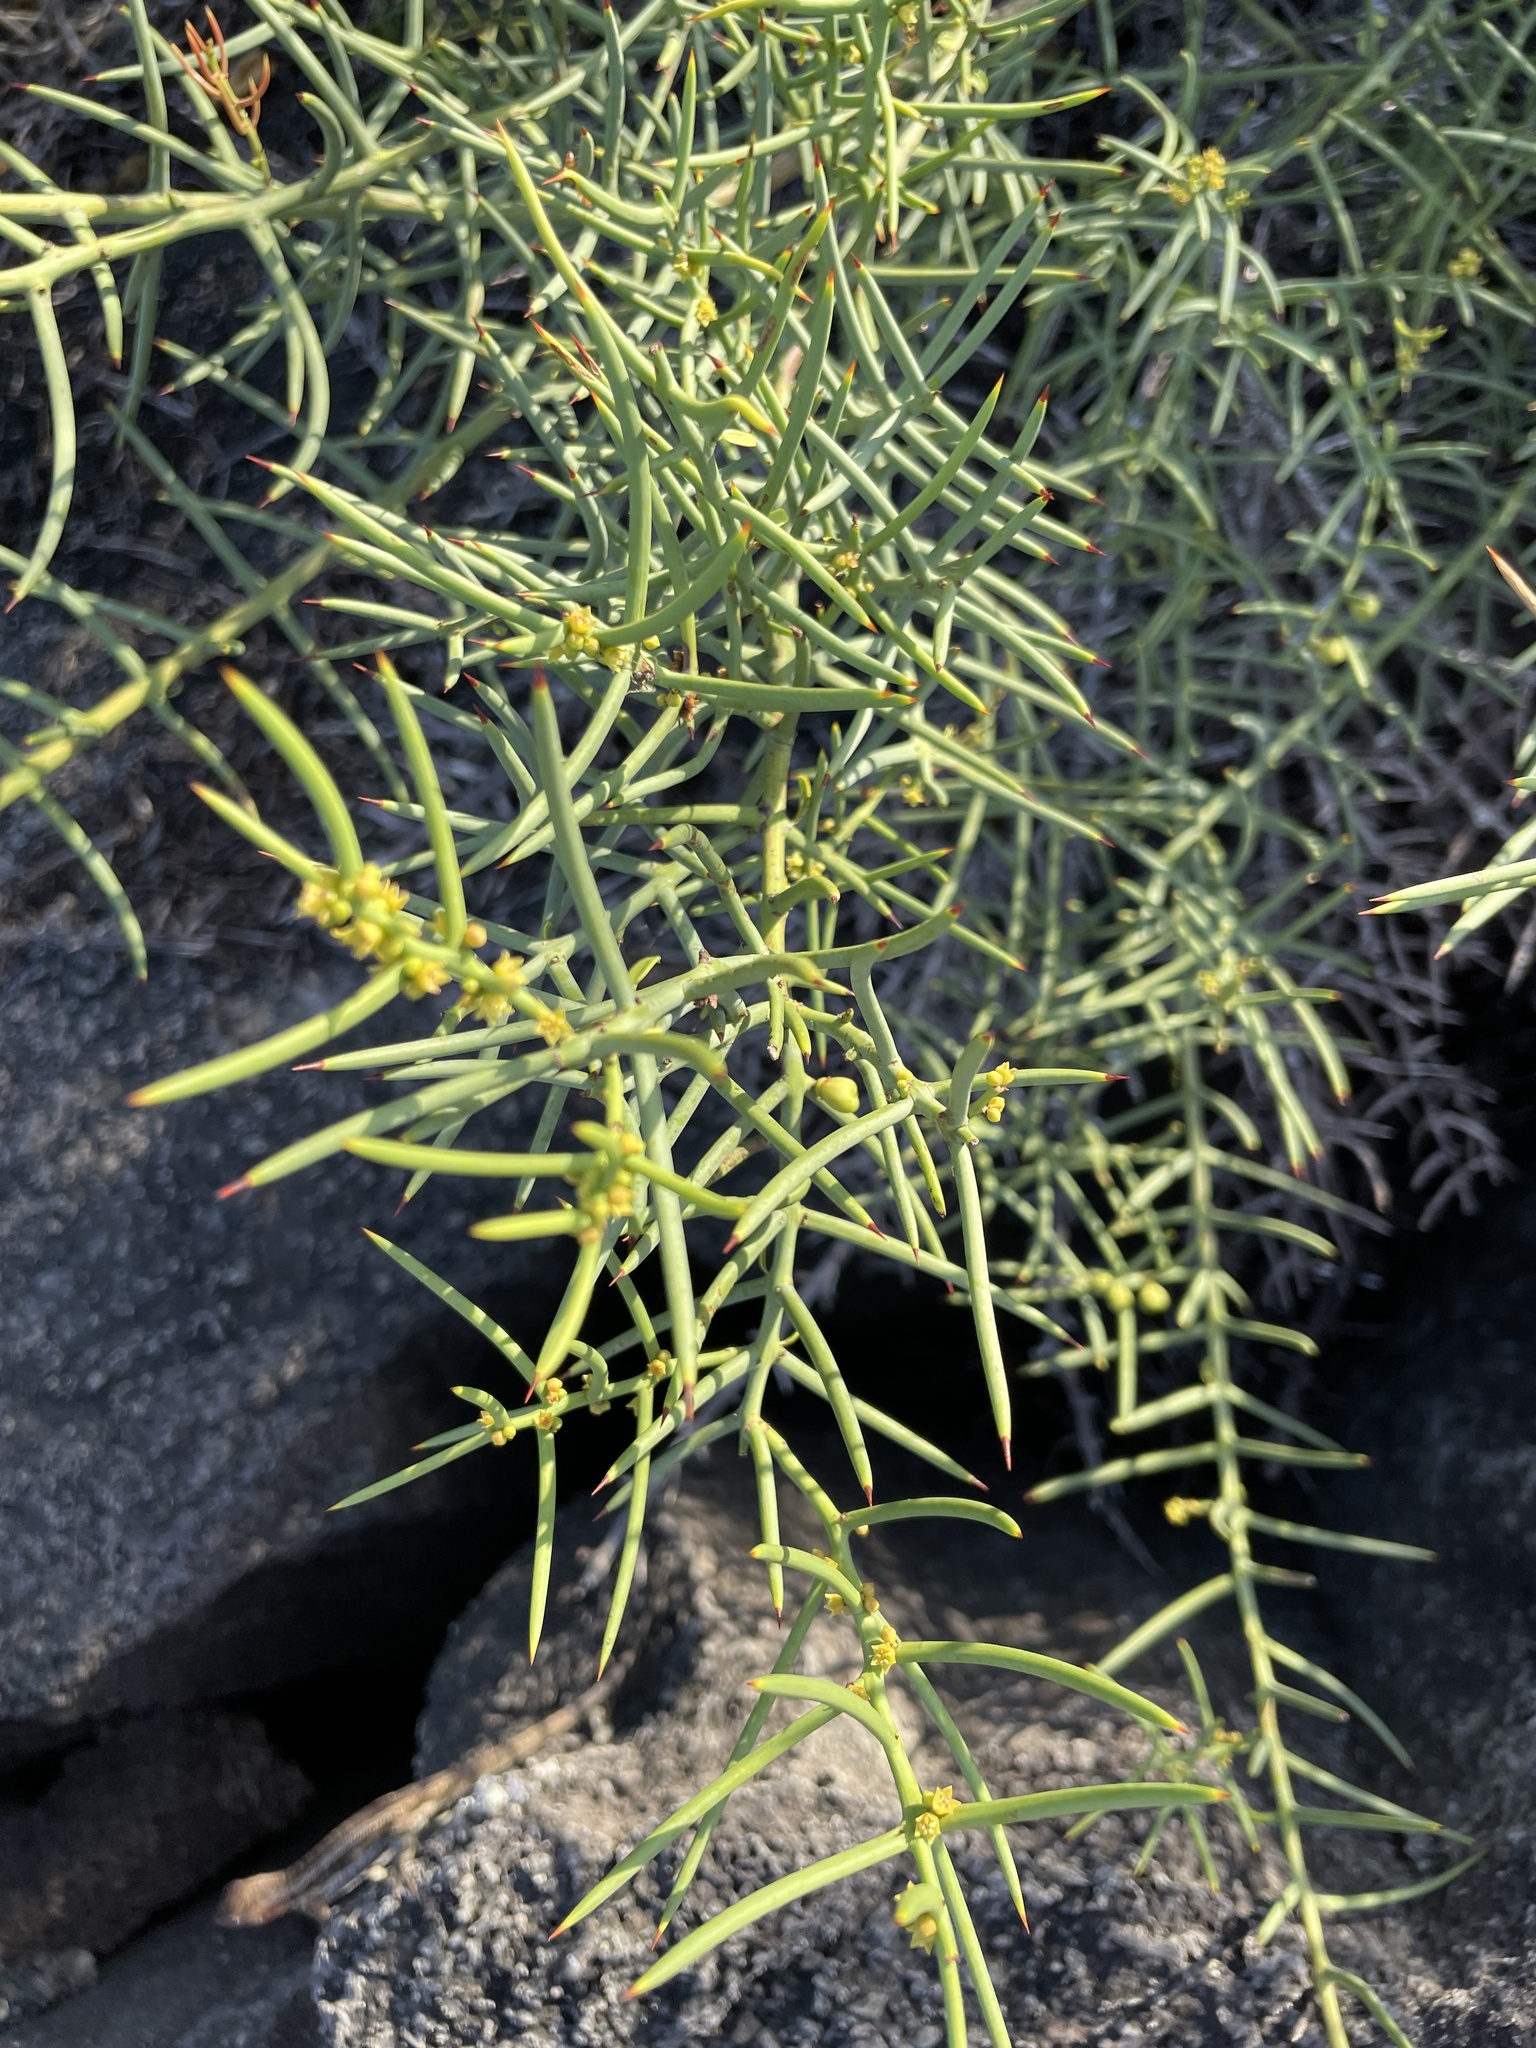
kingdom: Plantae
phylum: Tracheophyta
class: Magnoliopsida
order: Rosales
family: Rhamnaceae
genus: Scutia
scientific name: Scutia spicata
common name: Spiny bush
